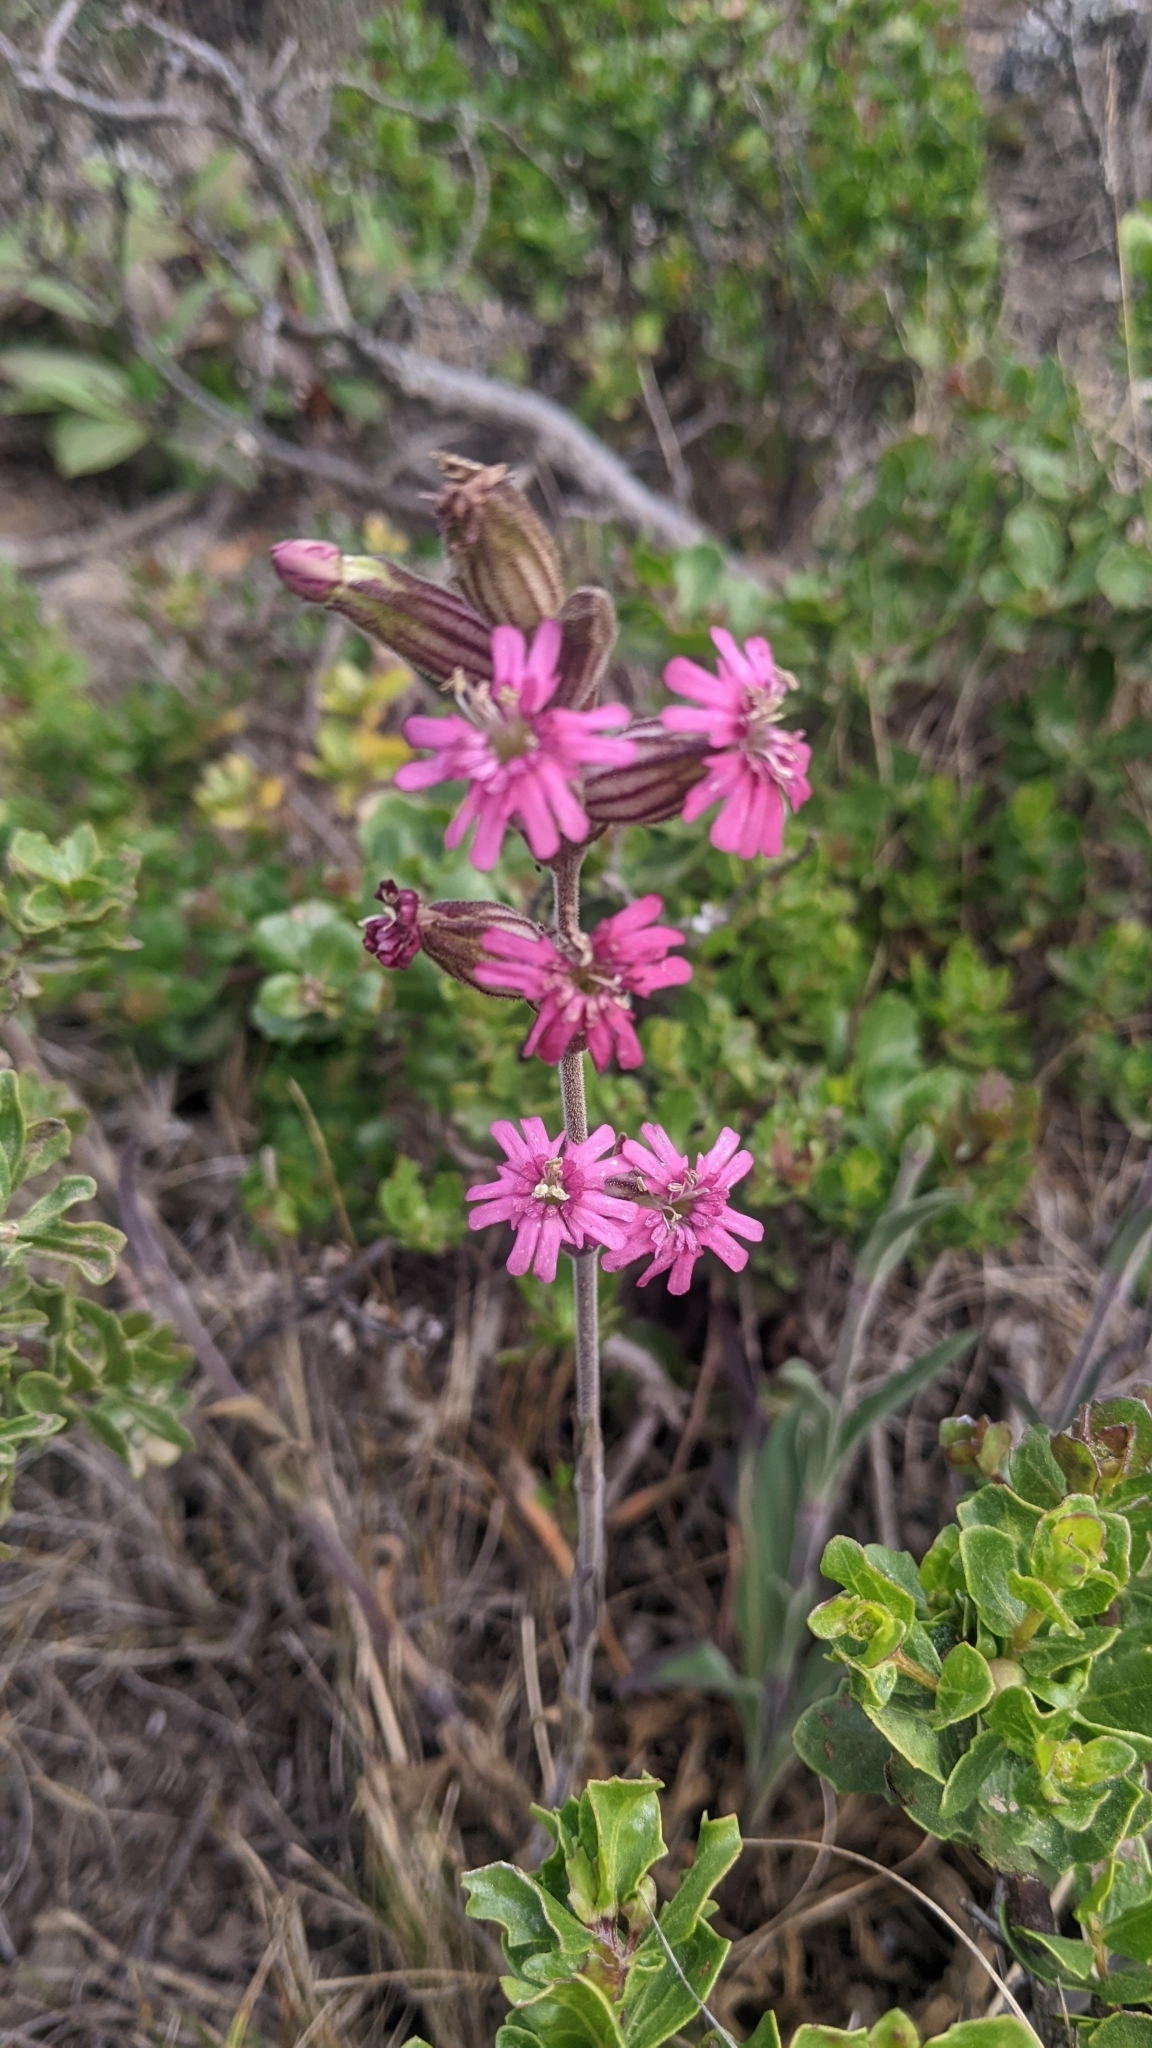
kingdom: Plantae
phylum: Tracheophyta
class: Magnoliopsida
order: Caryophyllales
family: Caryophyllaceae
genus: Silene
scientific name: Silene scouleri
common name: Scouler's campion
